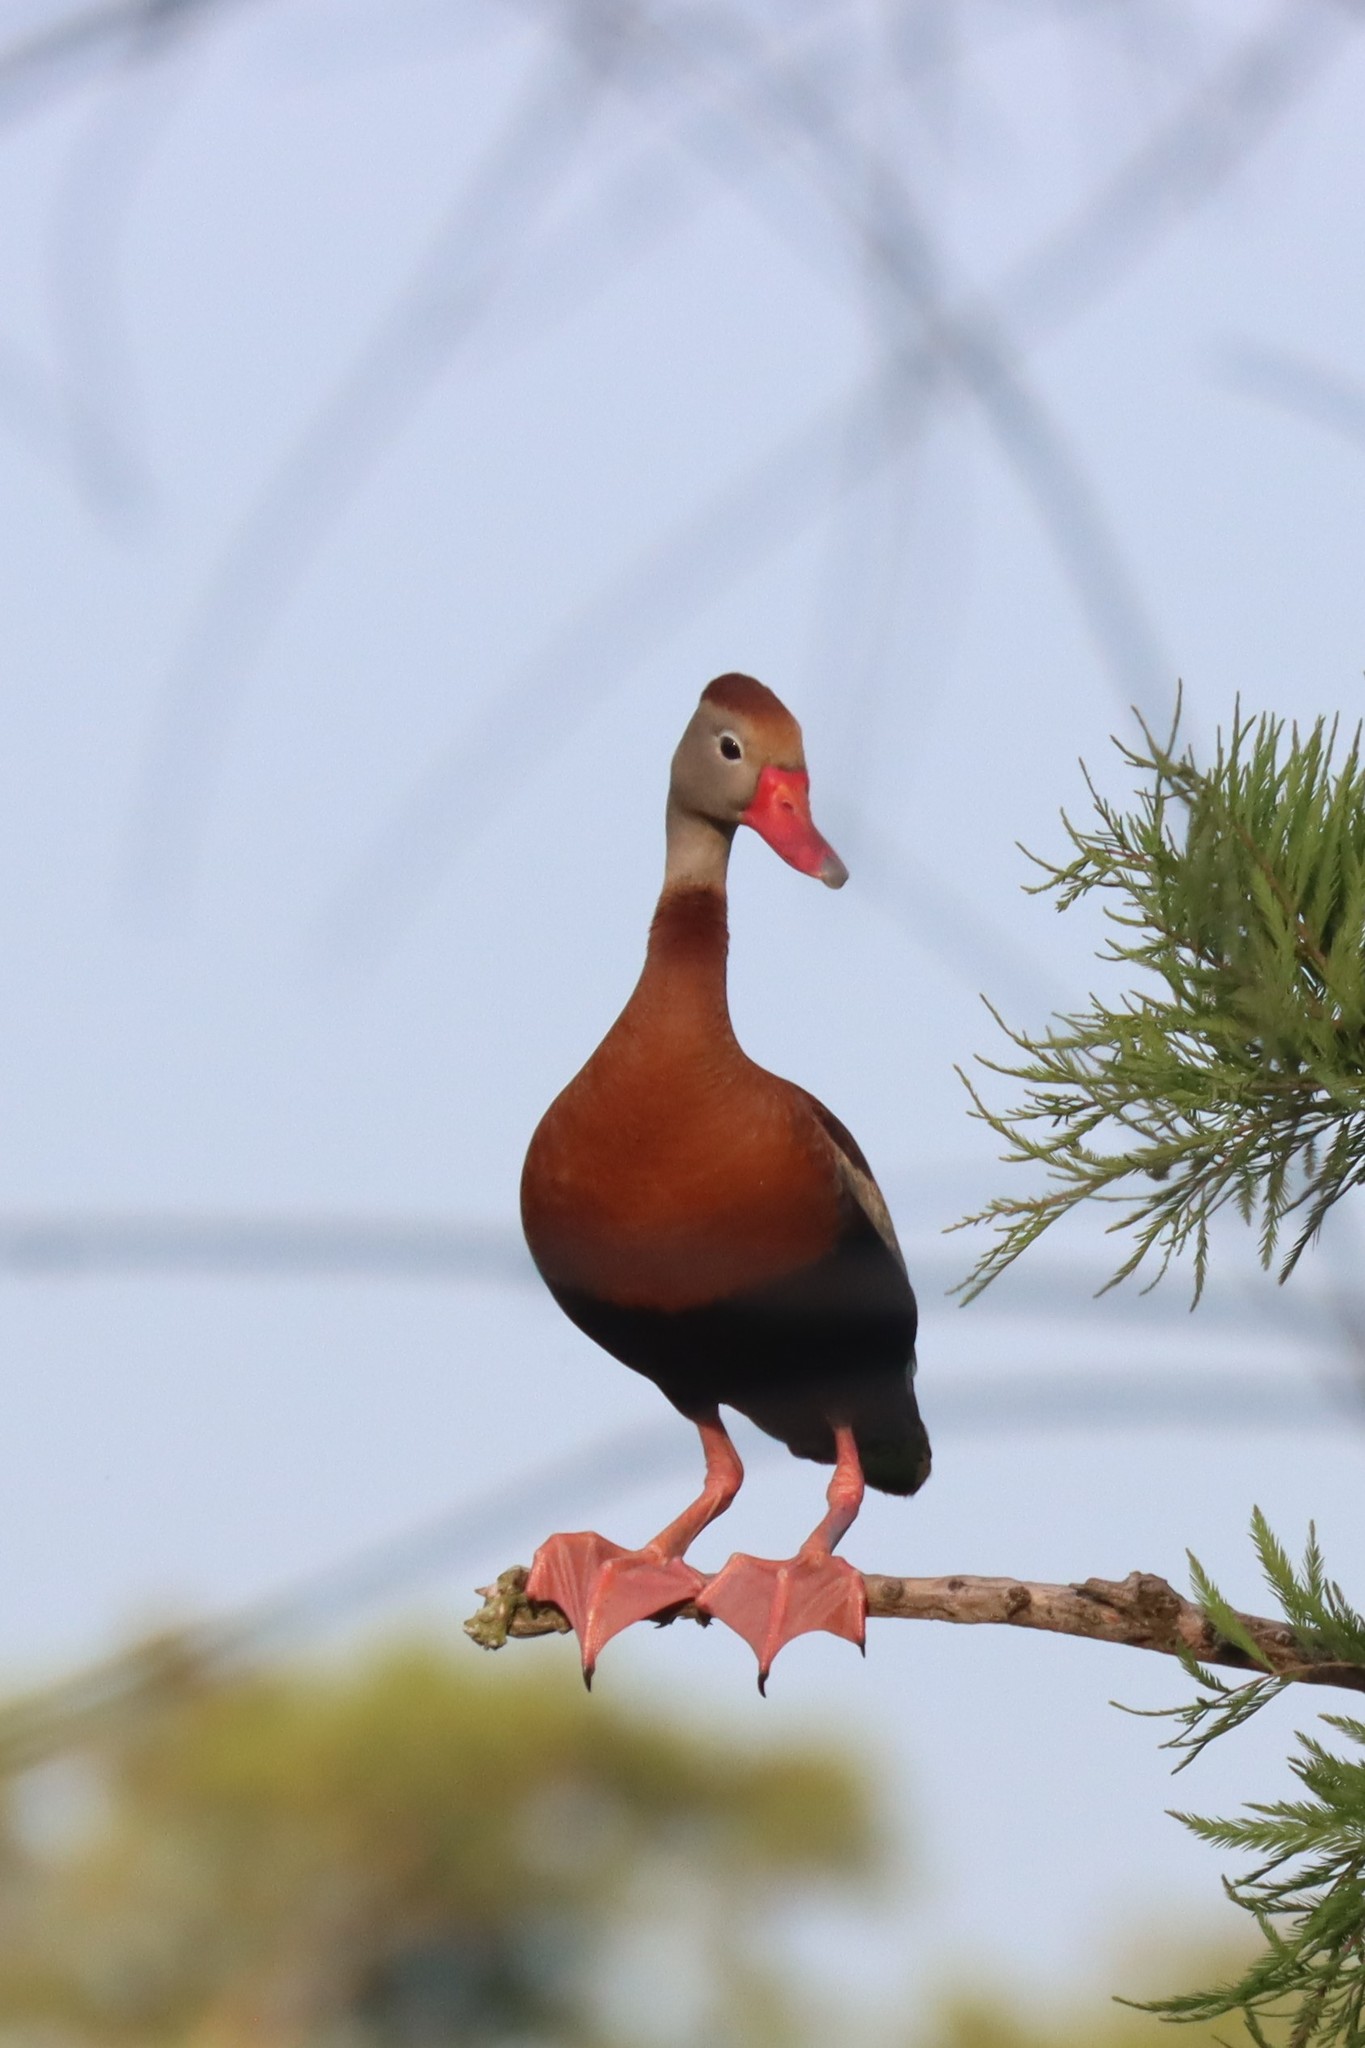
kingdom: Animalia
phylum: Chordata
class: Aves
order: Anseriformes
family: Anatidae
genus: Dendrocygna
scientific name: Dendrocygna autumnalis
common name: Black-bellied whistling duck
